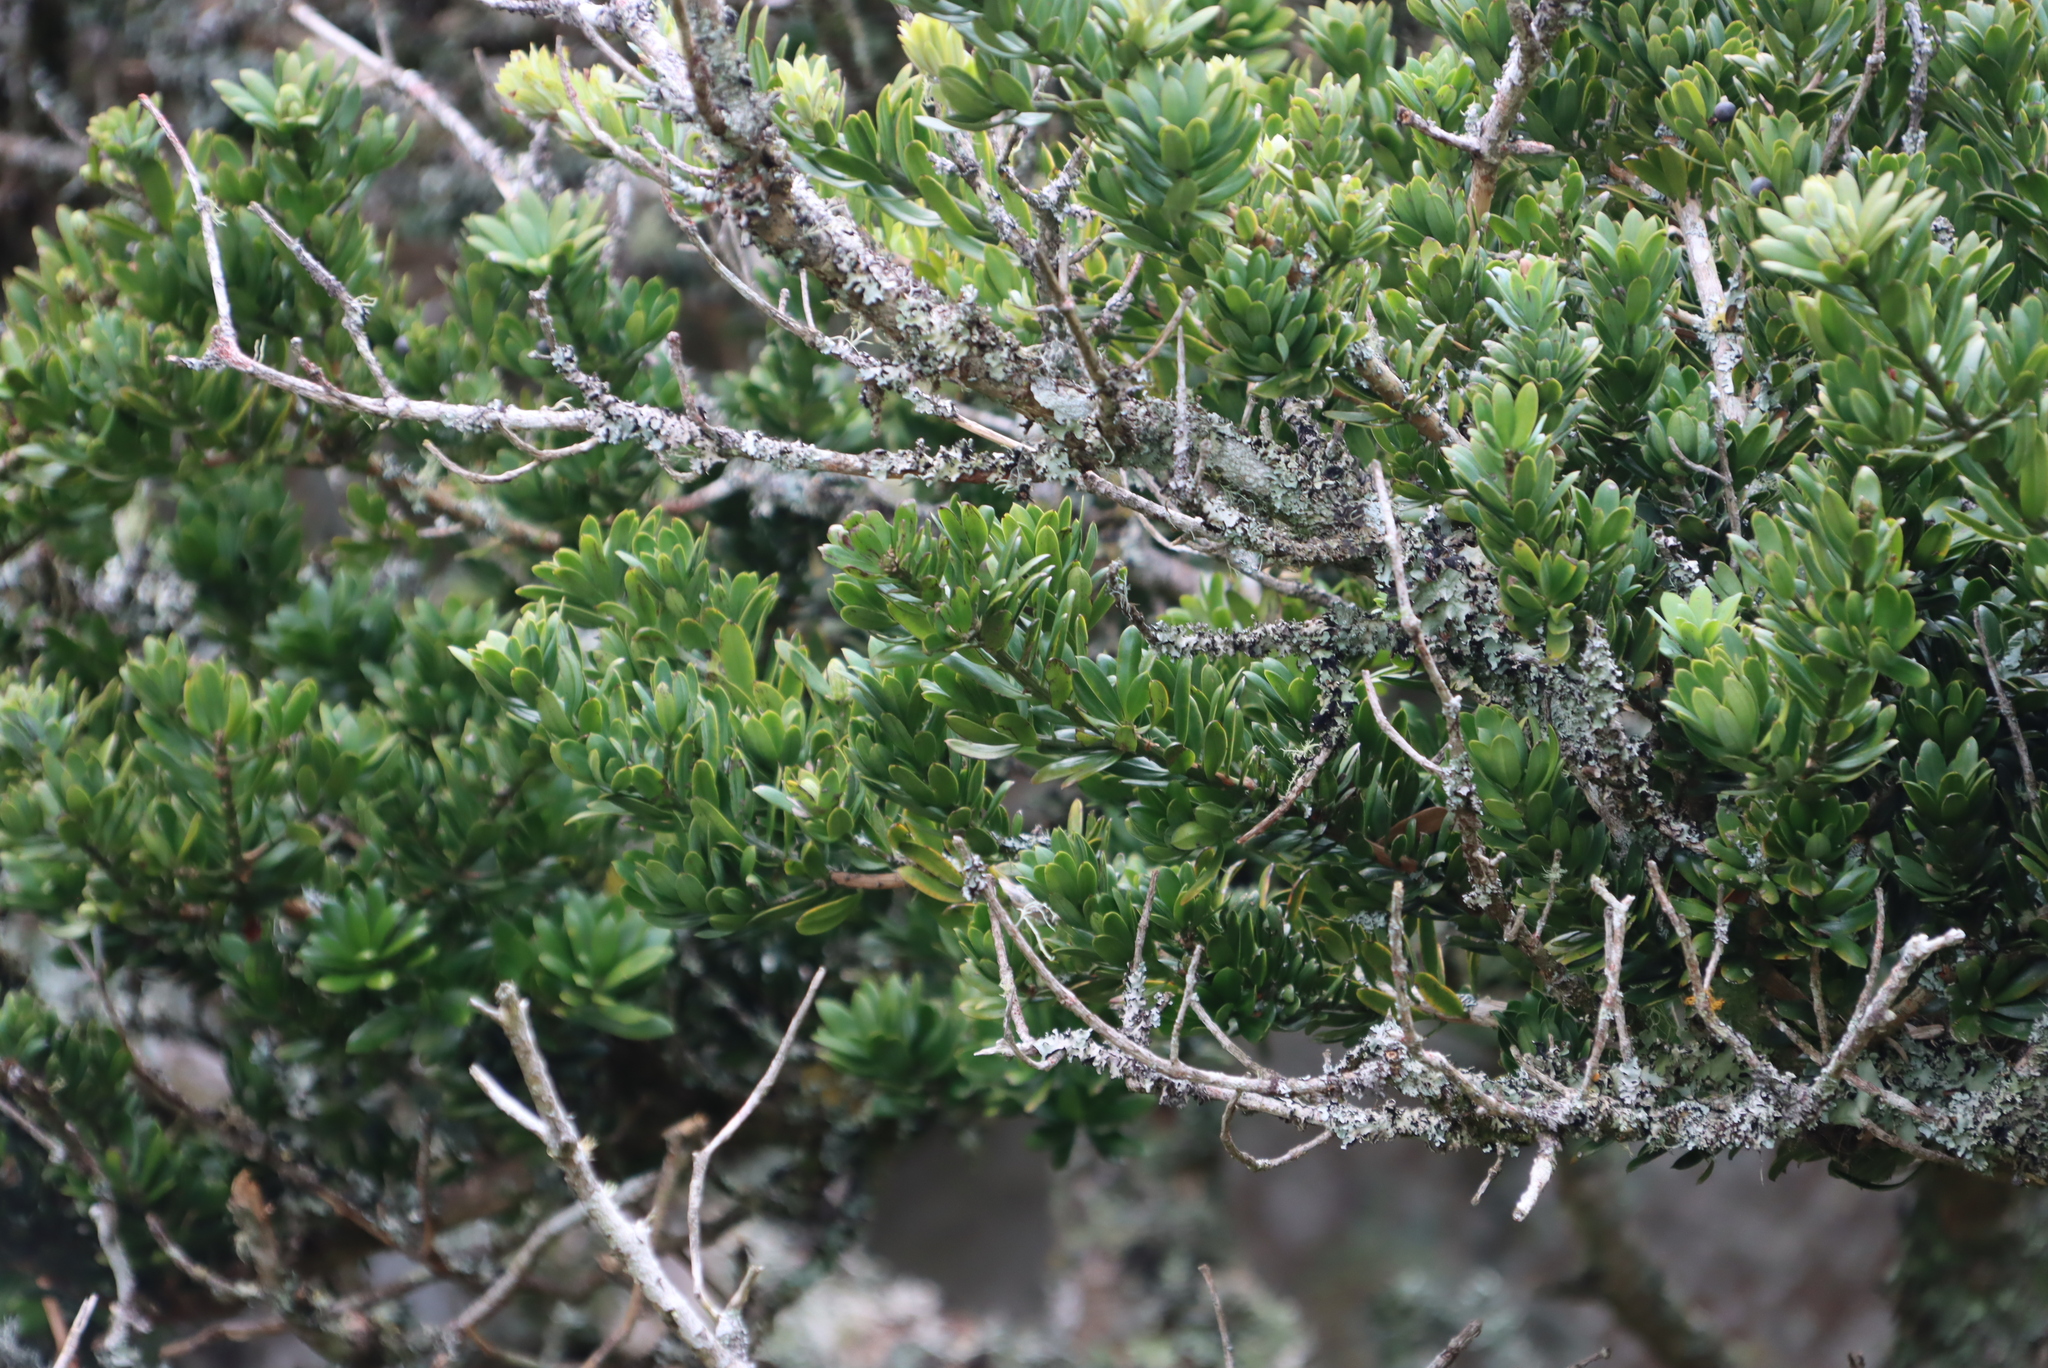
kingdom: Plantae
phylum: Tracheophyta
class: Pinopsida
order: Pinales
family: Podocarpaceae
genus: Podocarpus
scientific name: Podocarpus latifolius
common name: True yellowwood
